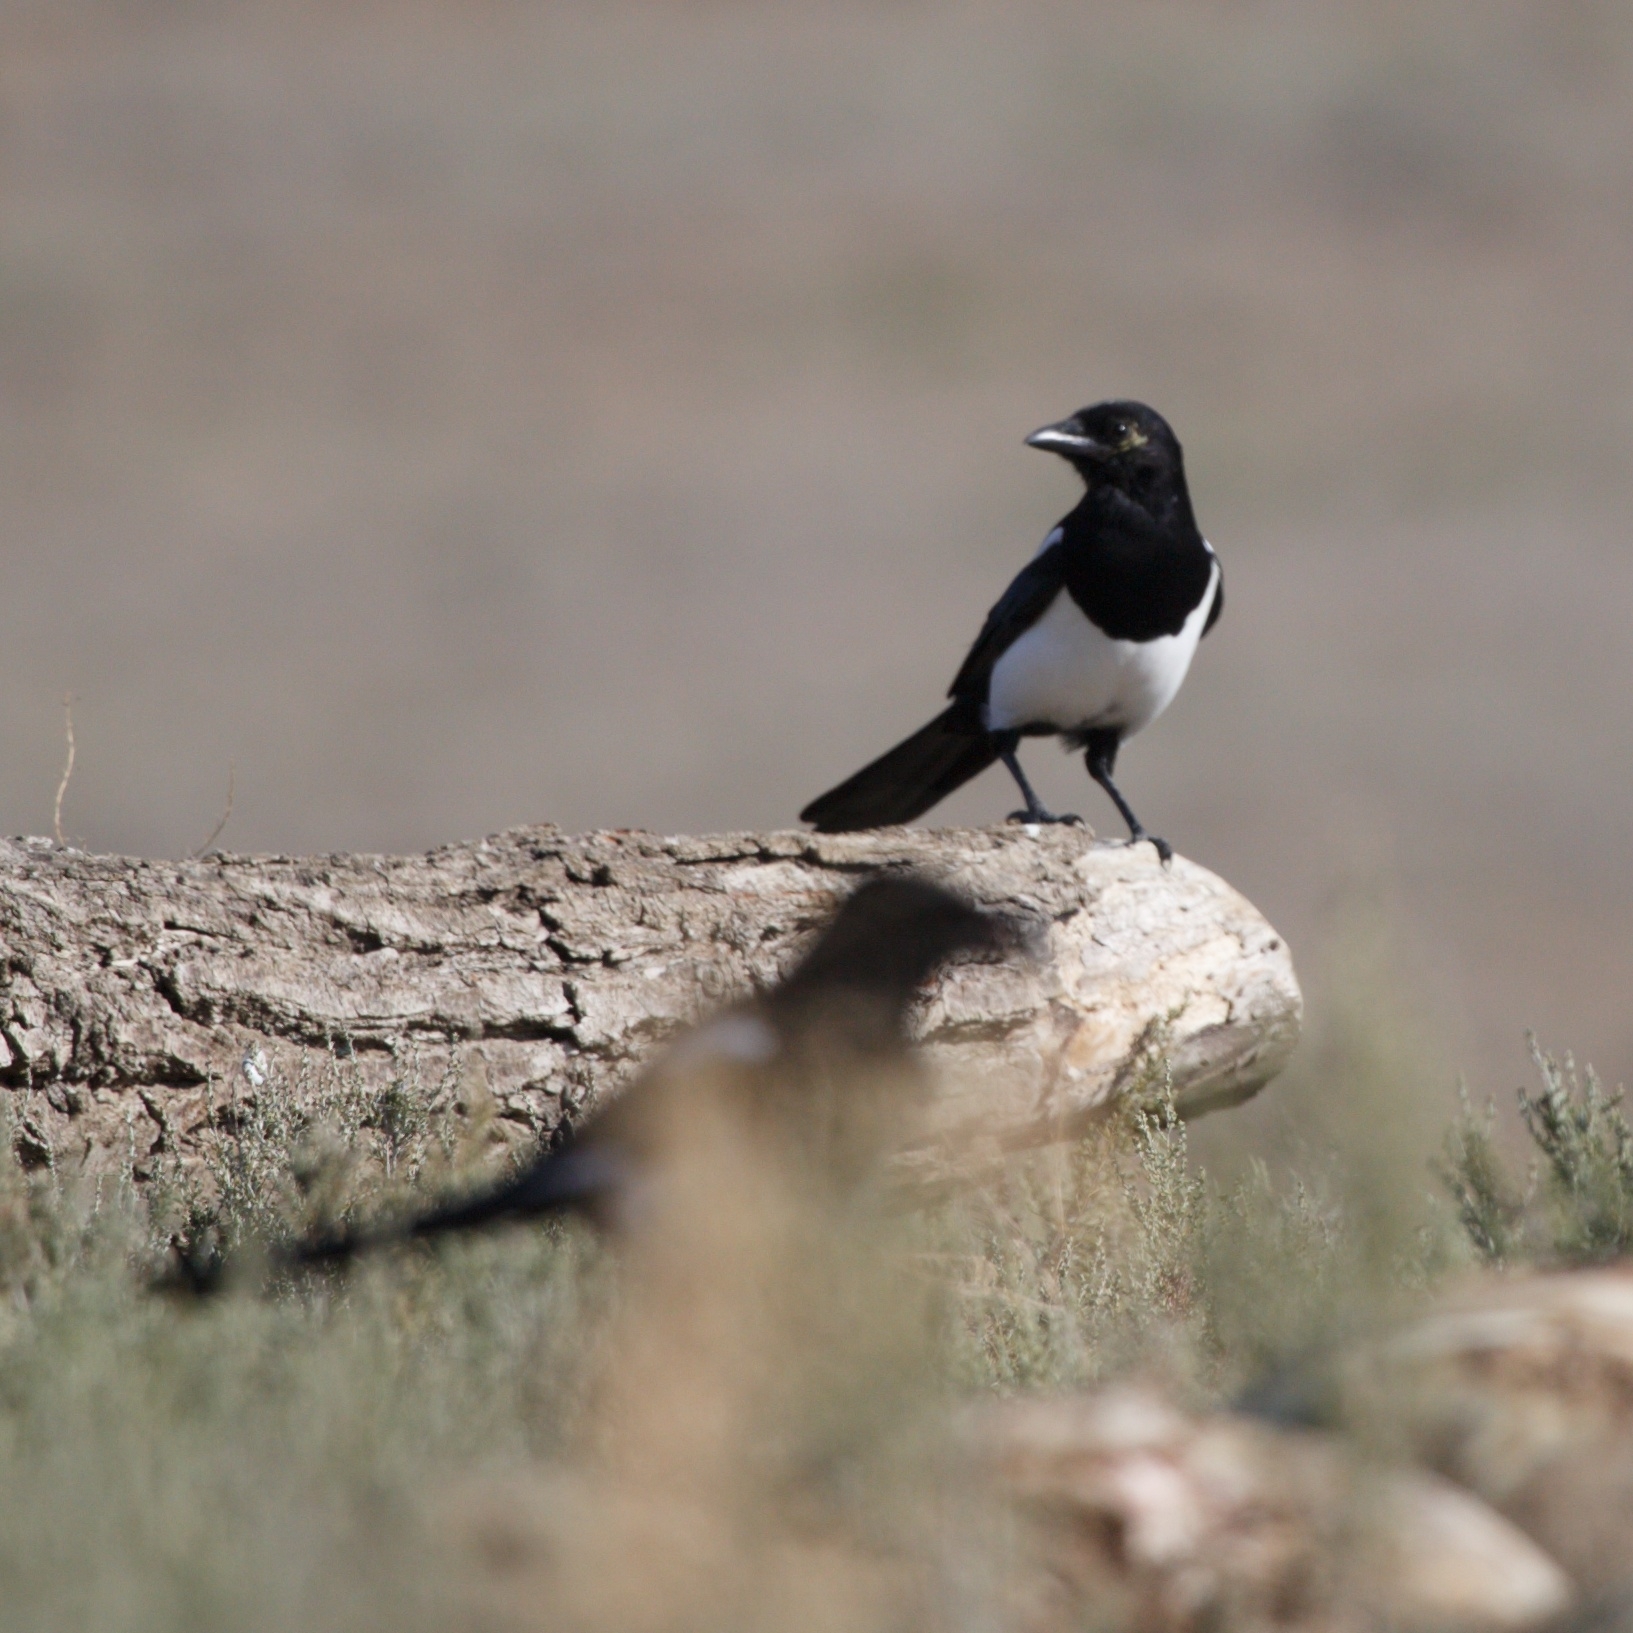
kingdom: Animalia
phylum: Chordata
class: Aves
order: Passeriformes
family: Corvidae
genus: Pica
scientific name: Pica pica
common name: Eurasian magpie
